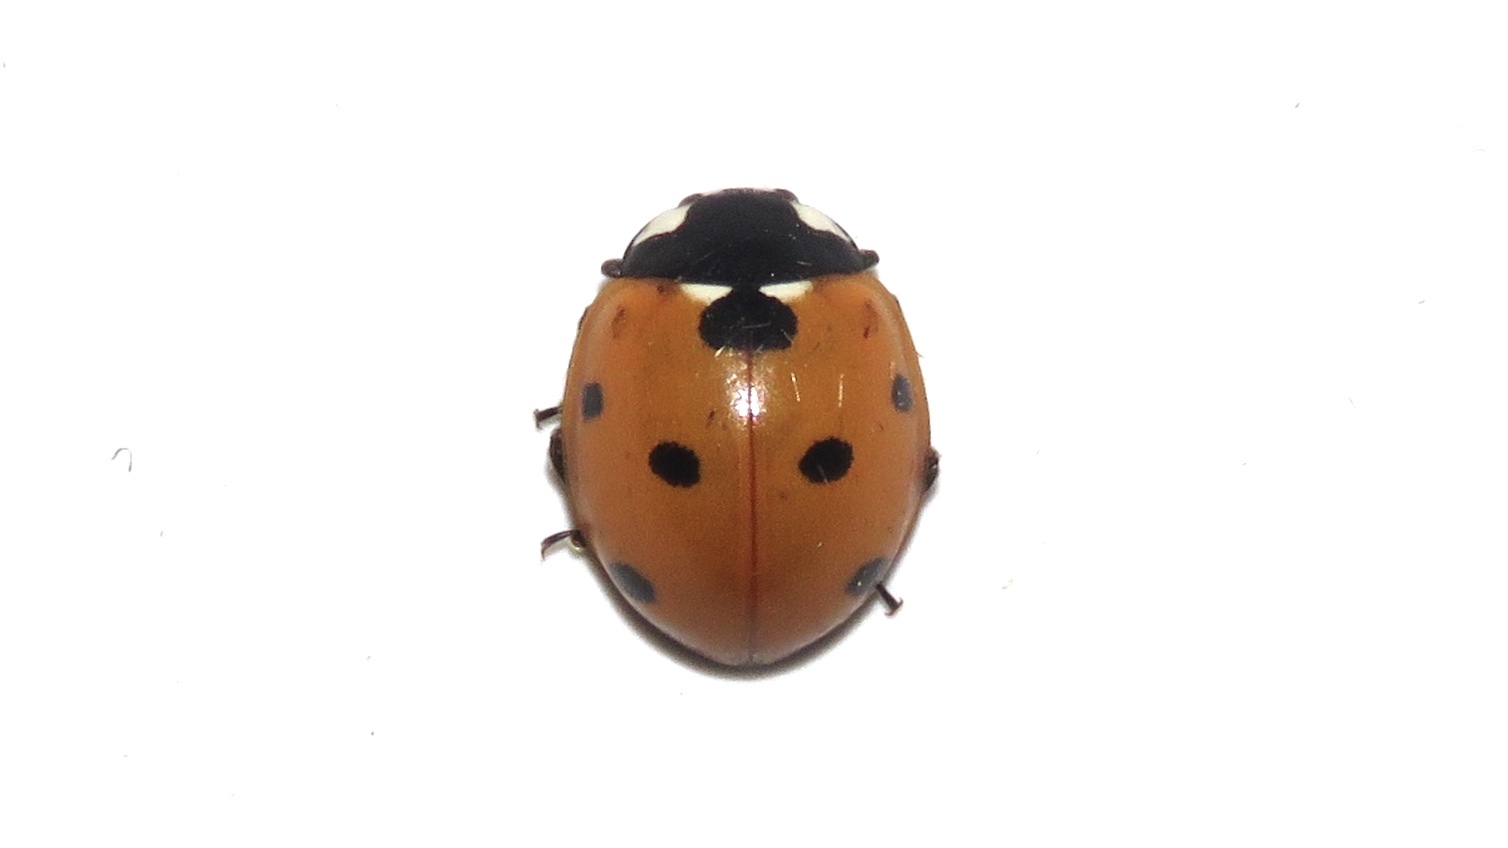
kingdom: Animalia
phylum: Arthropoda
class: Insecta
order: Coleoptera
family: Coccinellidae
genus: Coccinella
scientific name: Coccinella septempunctata
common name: Sevenspotted lady beetle
